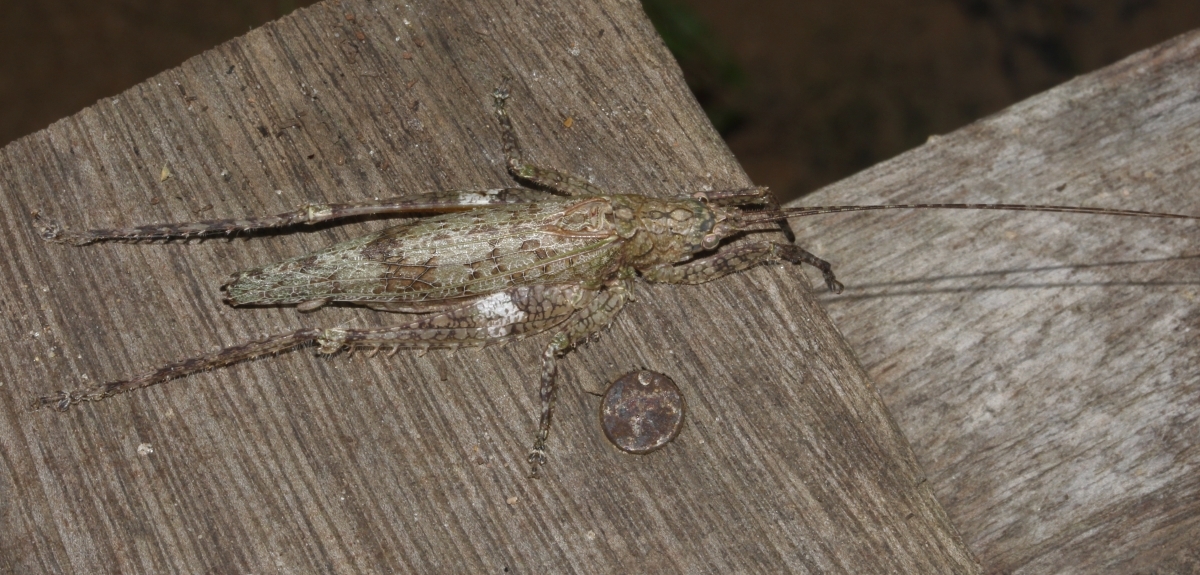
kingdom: Animalia
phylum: Arthropoda
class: Insecta
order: Orthoptera
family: Tettigoniidae
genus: Stenoschema
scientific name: Stenoschema
